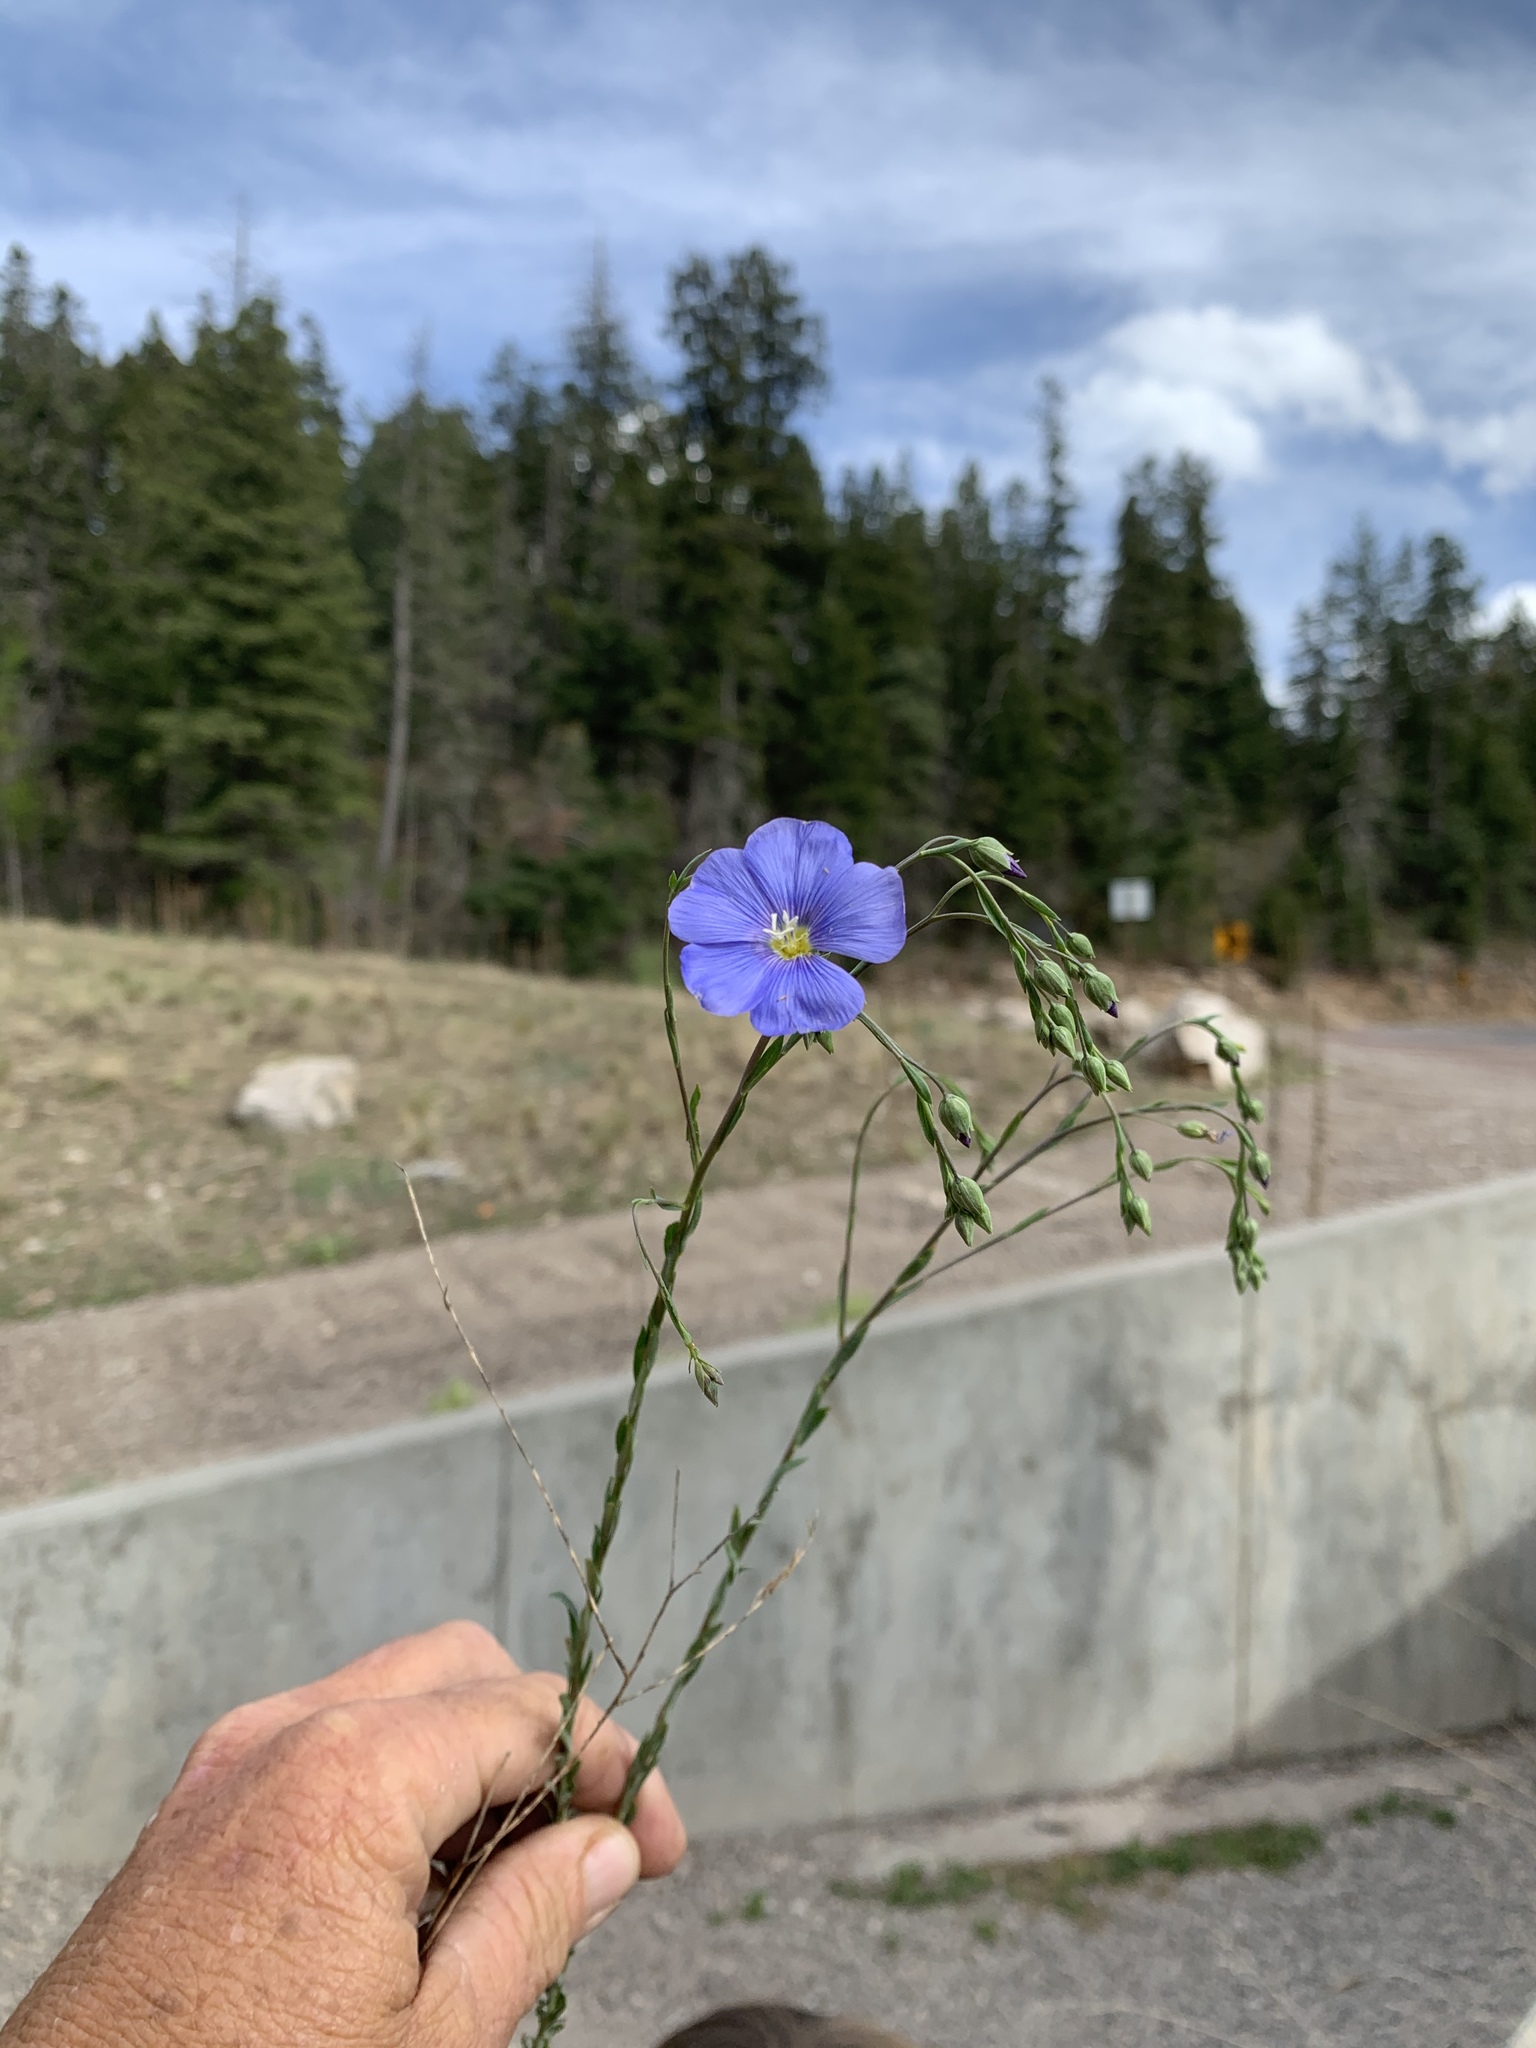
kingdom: Plantae
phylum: Tracheophyta
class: Magnoliopsida
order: Malpighiales
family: Linaceae
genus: Linum
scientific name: Linum lewisii
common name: Prairie flax
